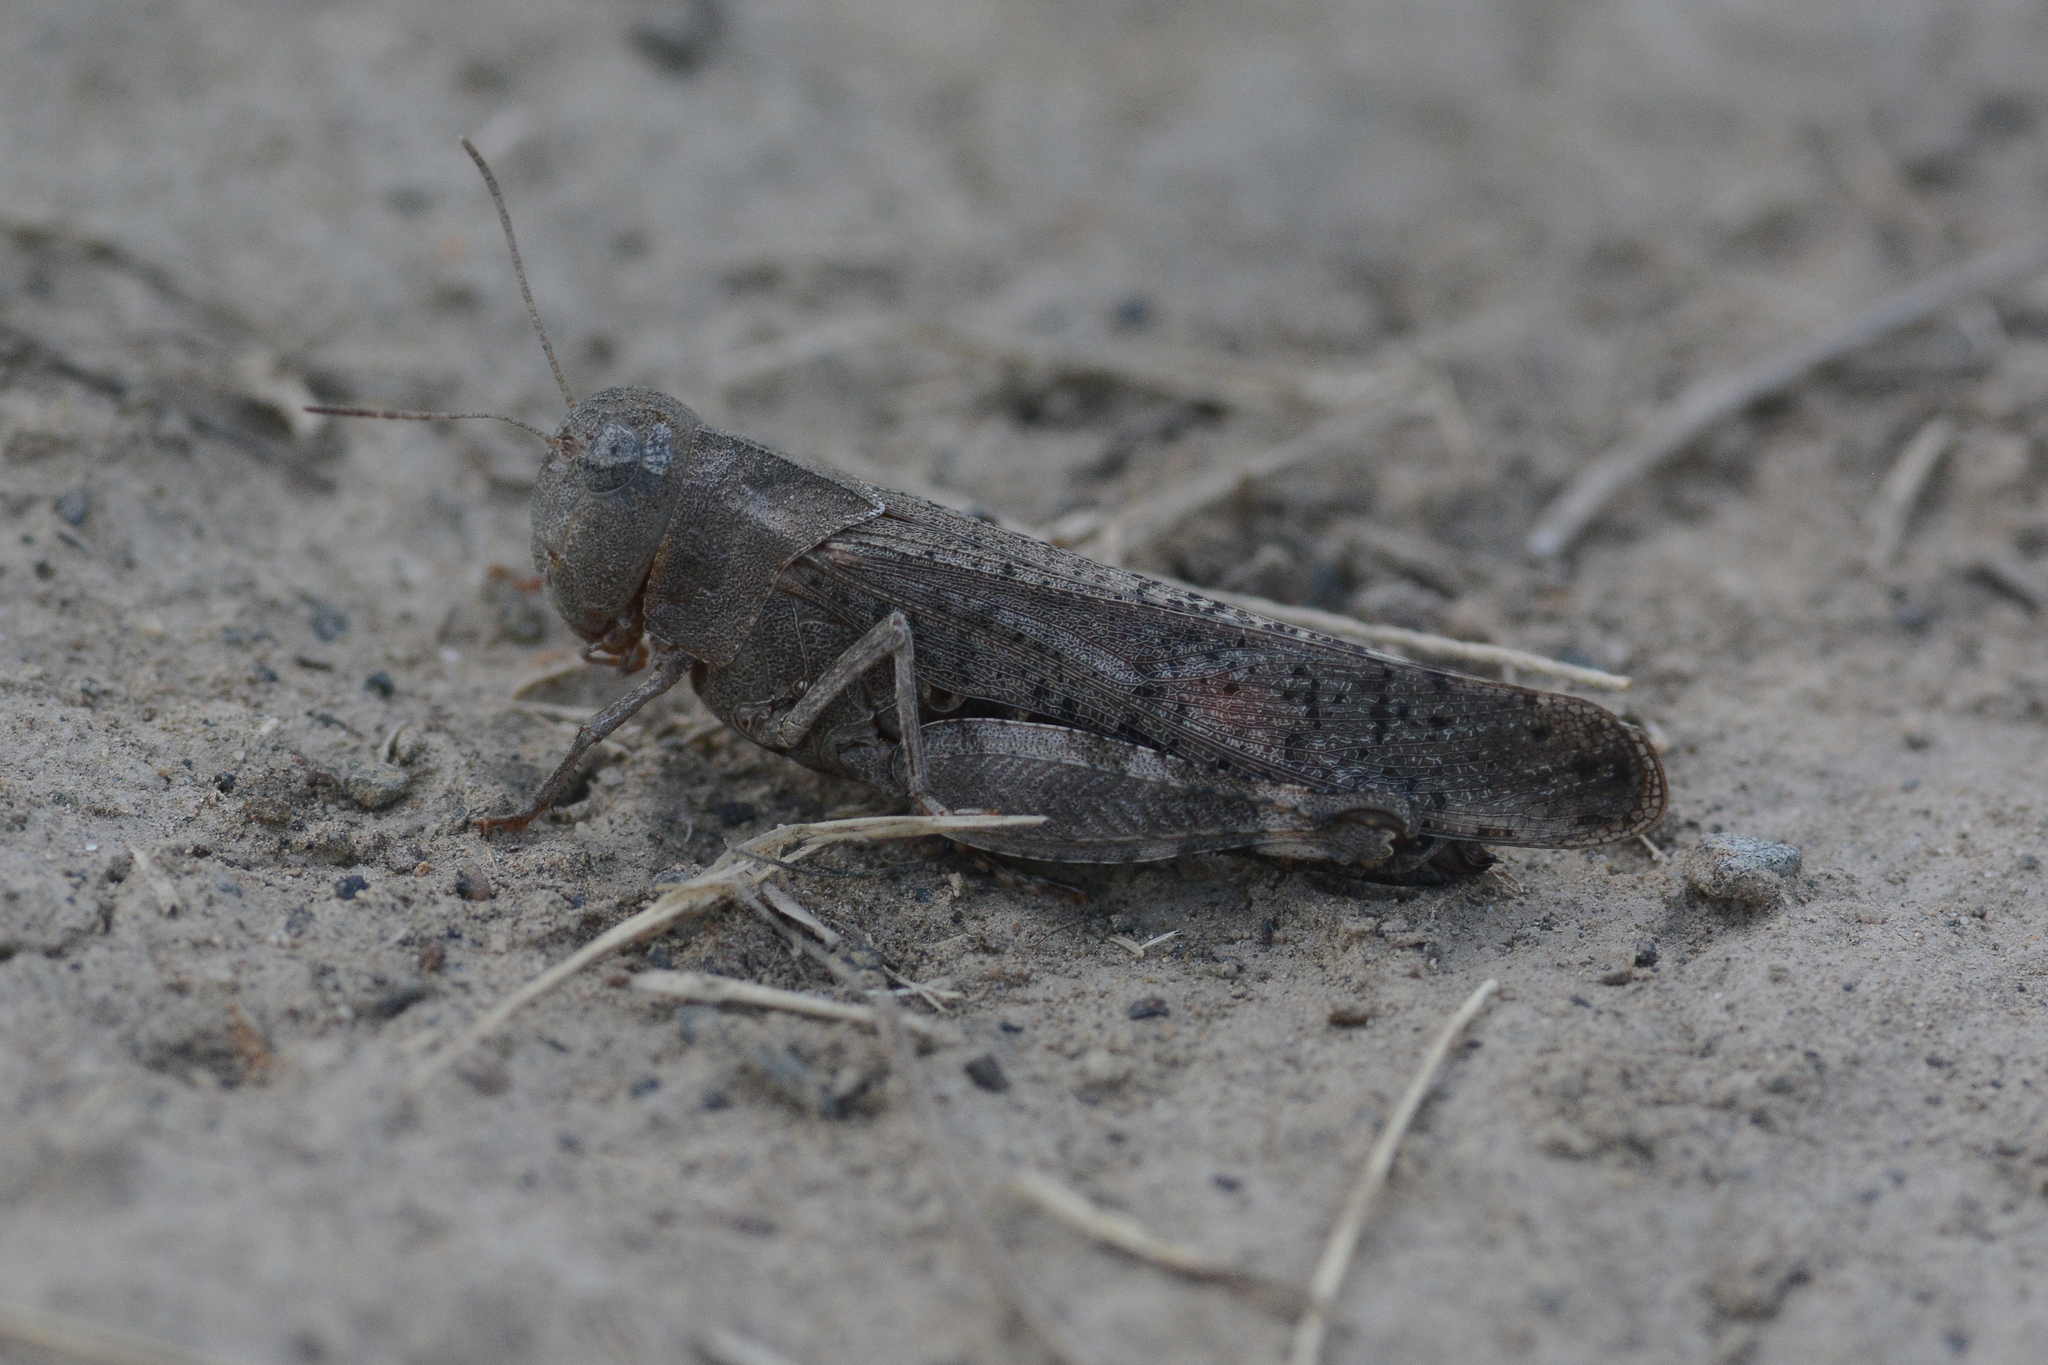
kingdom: Animalia
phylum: Arthropoda
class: Insecta
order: Orthoptera
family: Acrididae
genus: Arphia
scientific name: Arphia pseudo-nietana
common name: Red-winged grasshopper
